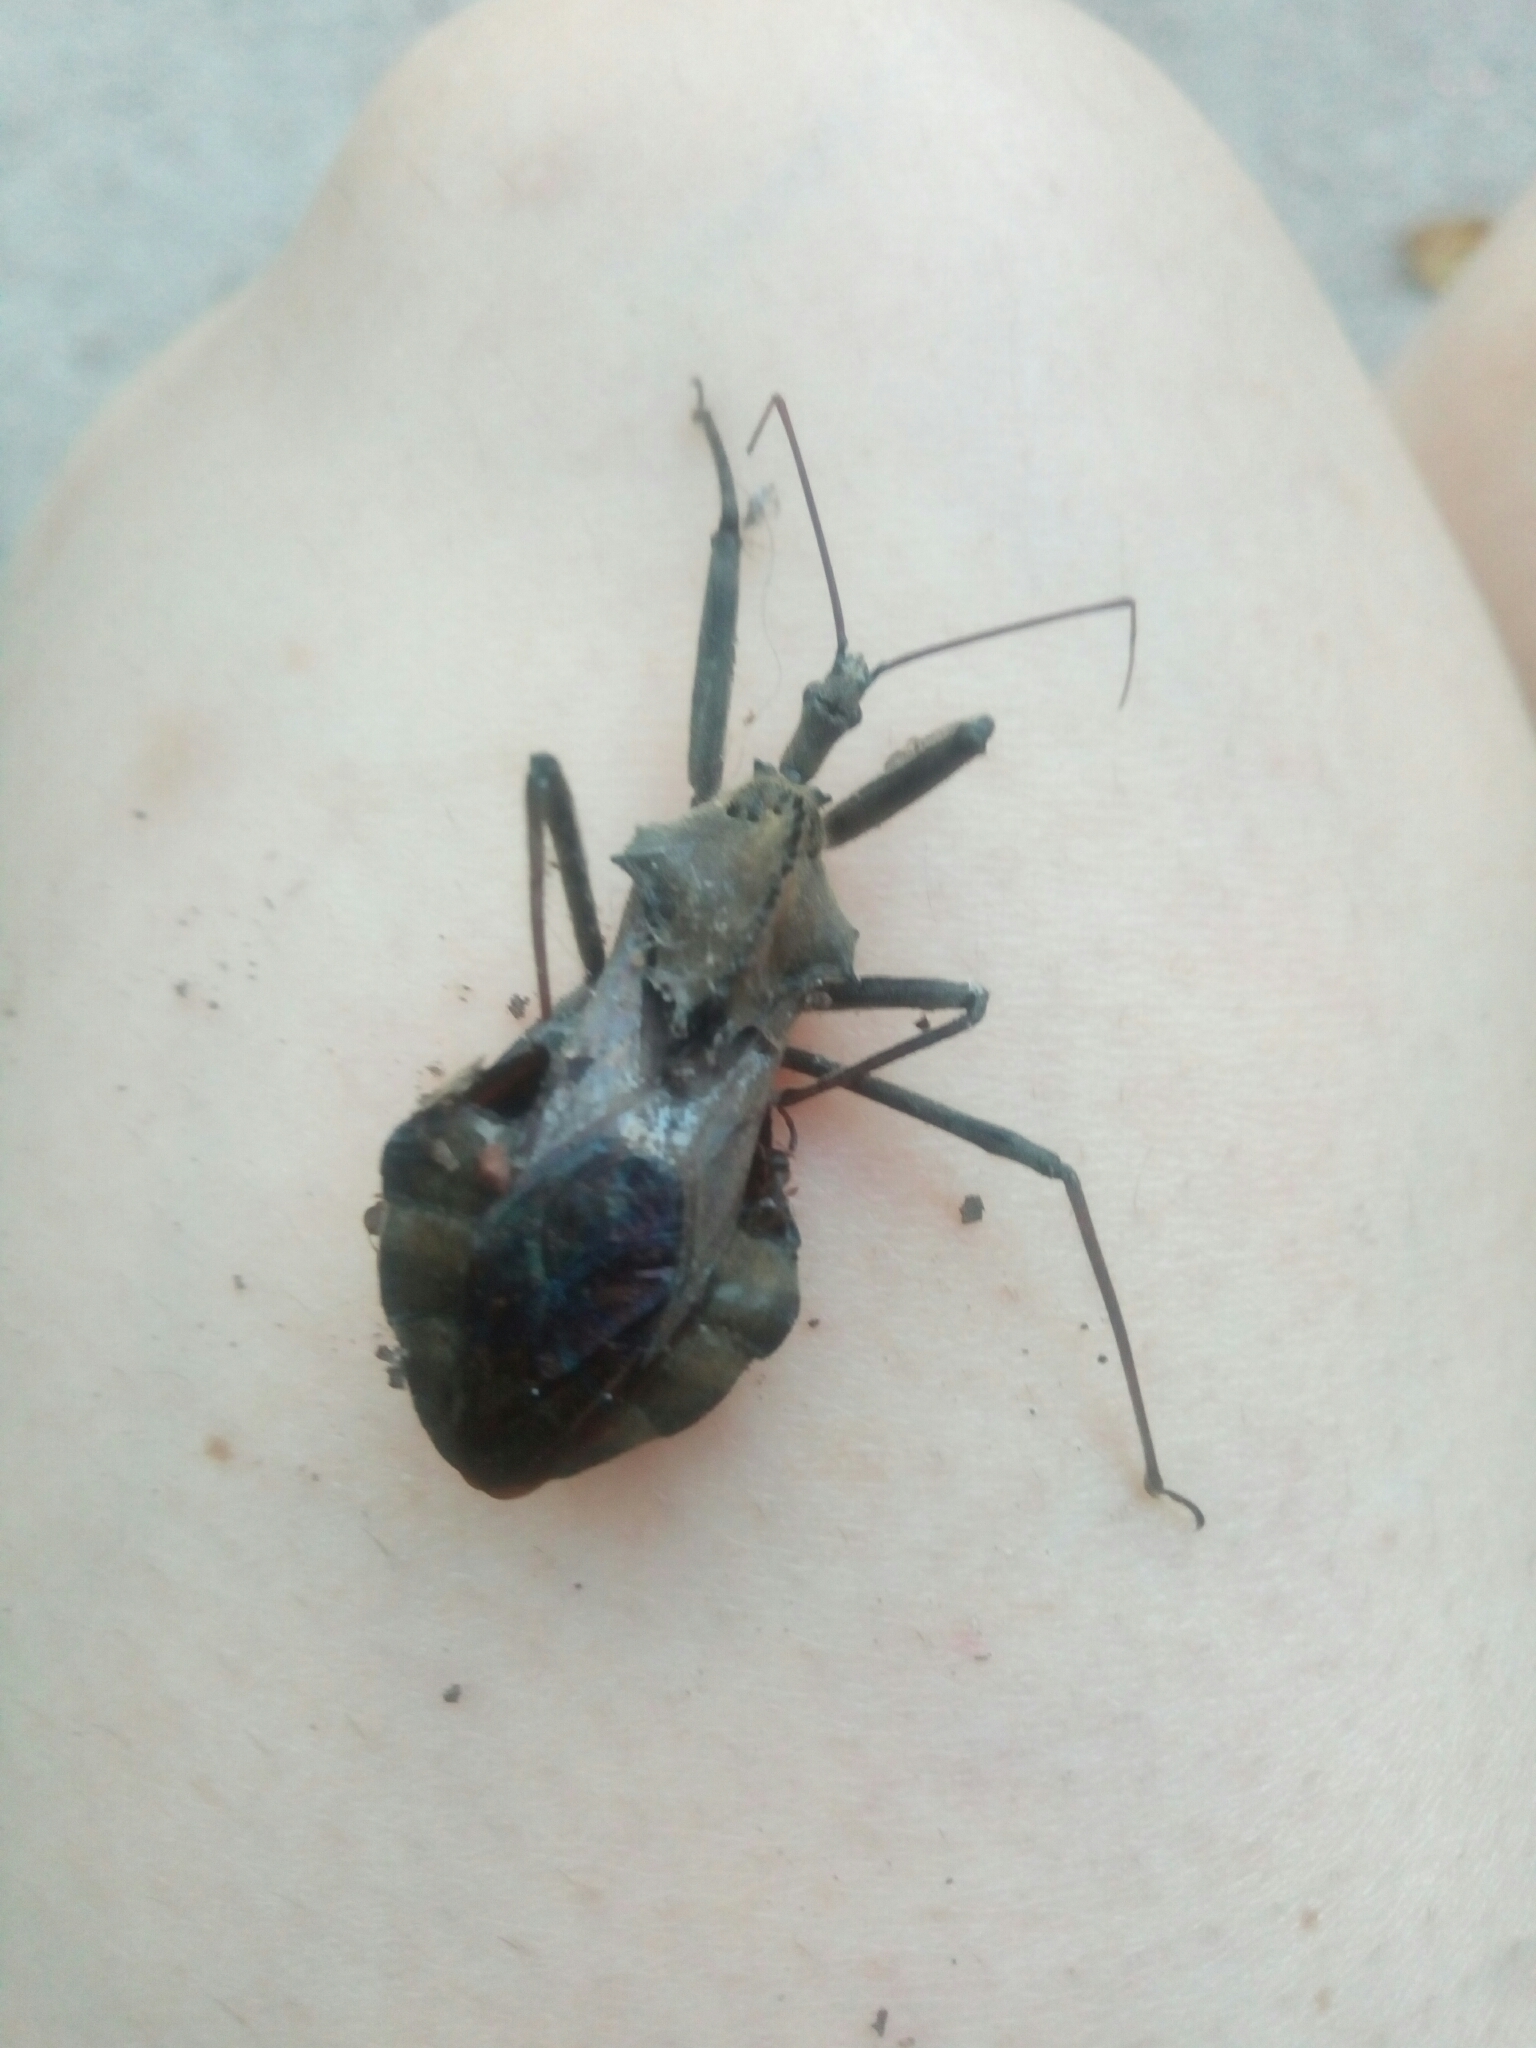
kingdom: Animalia
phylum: Arthropoda
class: Insecta
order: Hemiptera
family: Reduviidae
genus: Arilus
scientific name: Arilus cristatus
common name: North american wheel bug
